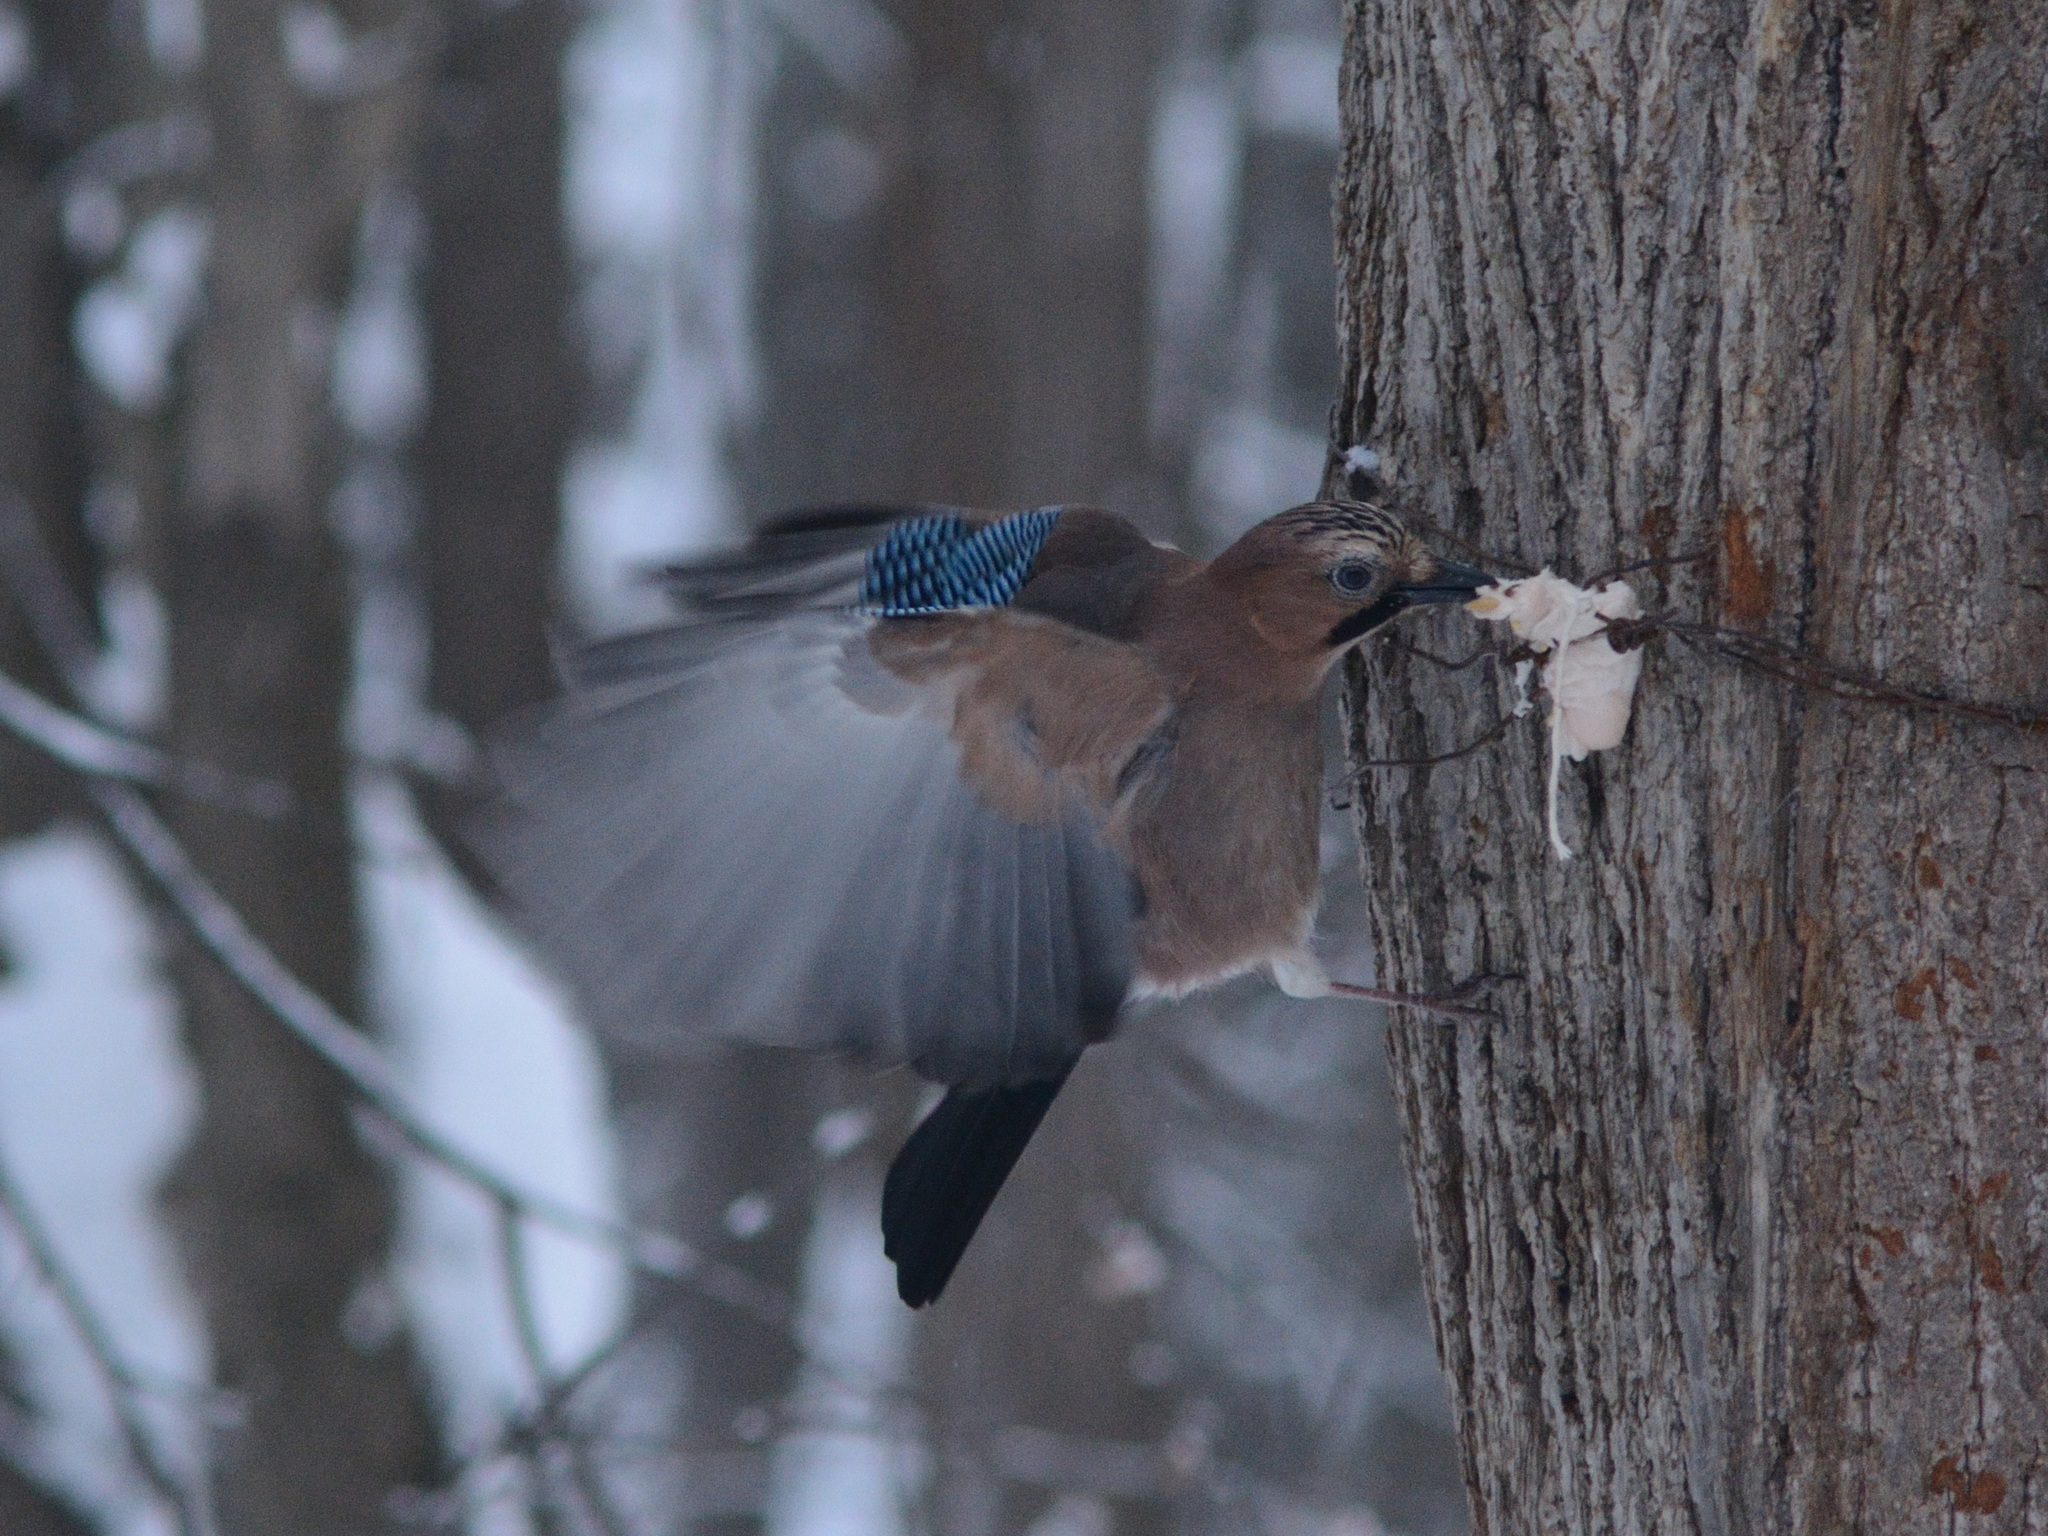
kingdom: Animalia
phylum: Chordata
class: Aves
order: Passeriformes
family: Corvidae
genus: Garrulus
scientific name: Garrulus glandarius
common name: Eurasian jay
